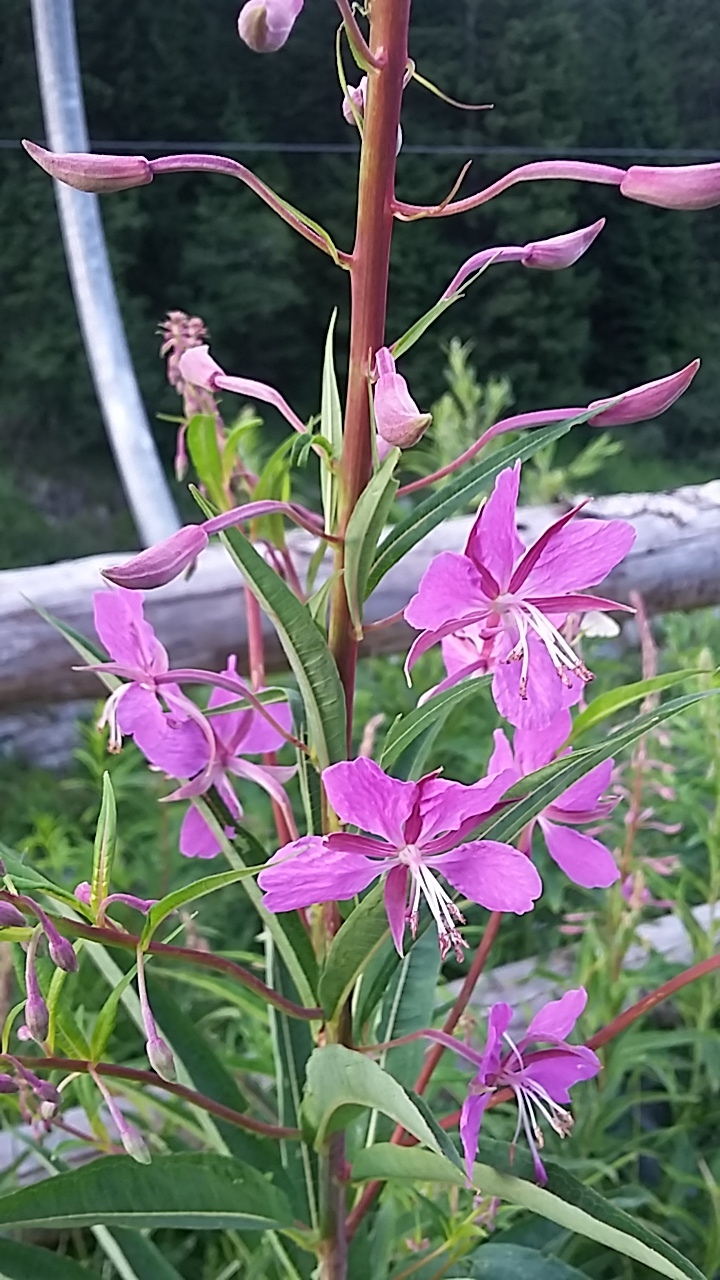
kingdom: Plantae
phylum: Tracheophyta
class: Magnoliopsida
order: Myrtales
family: Onagraceae
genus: Chamaenerion
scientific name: Chamaenerion angustifolium
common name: Fireweed
